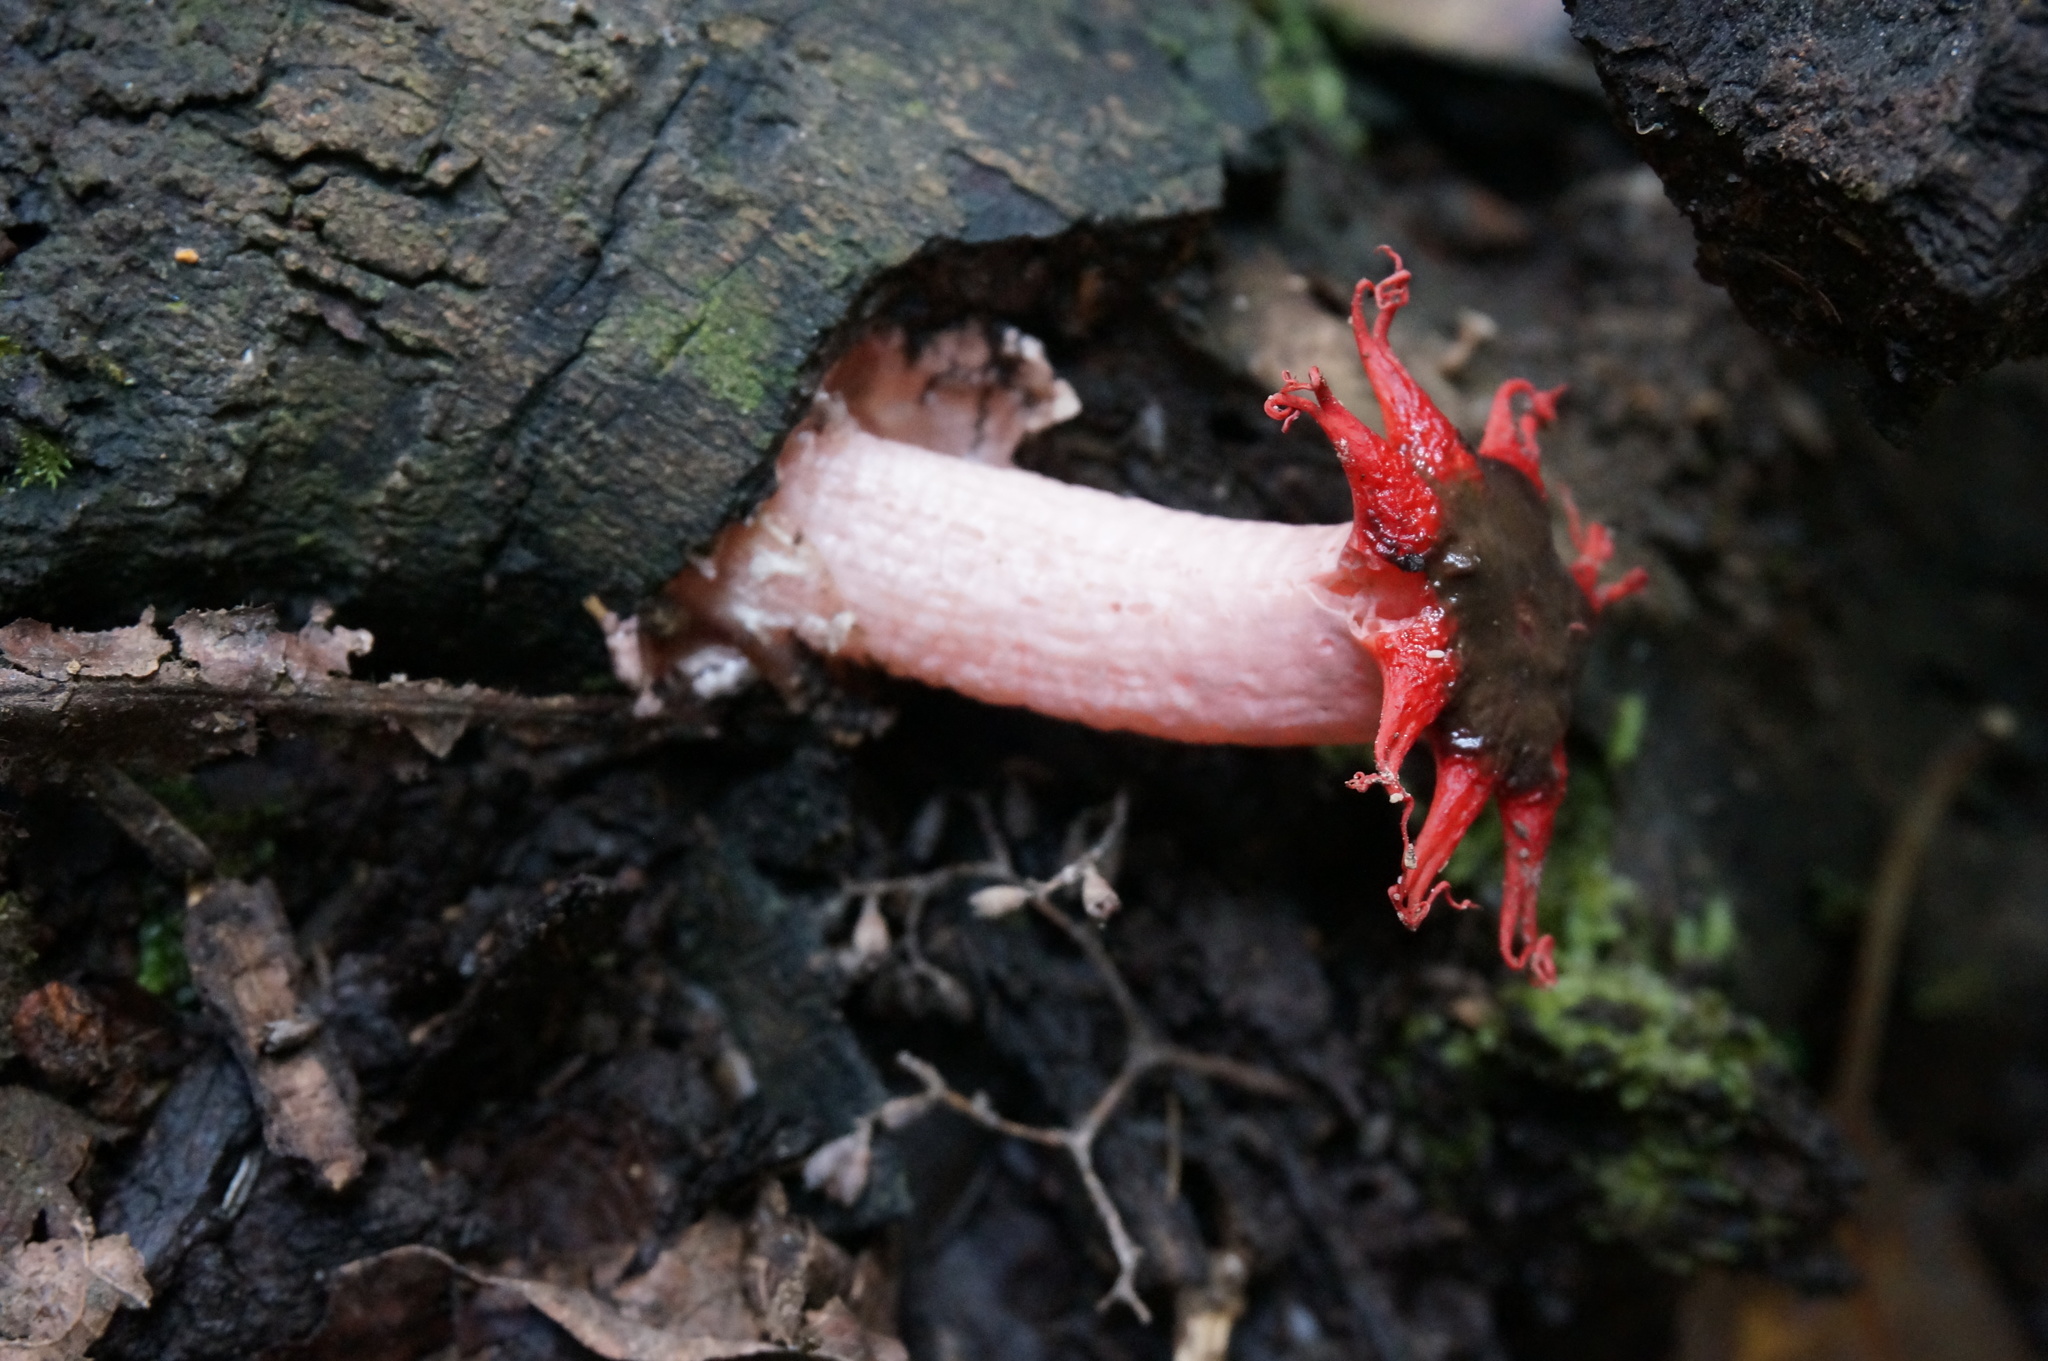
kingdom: Fungi
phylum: Basidiomycota
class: Agaricomycetes
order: Phallales
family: Phallaceae
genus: Aseroe
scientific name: Aseroe rubra
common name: Starfish fungus
